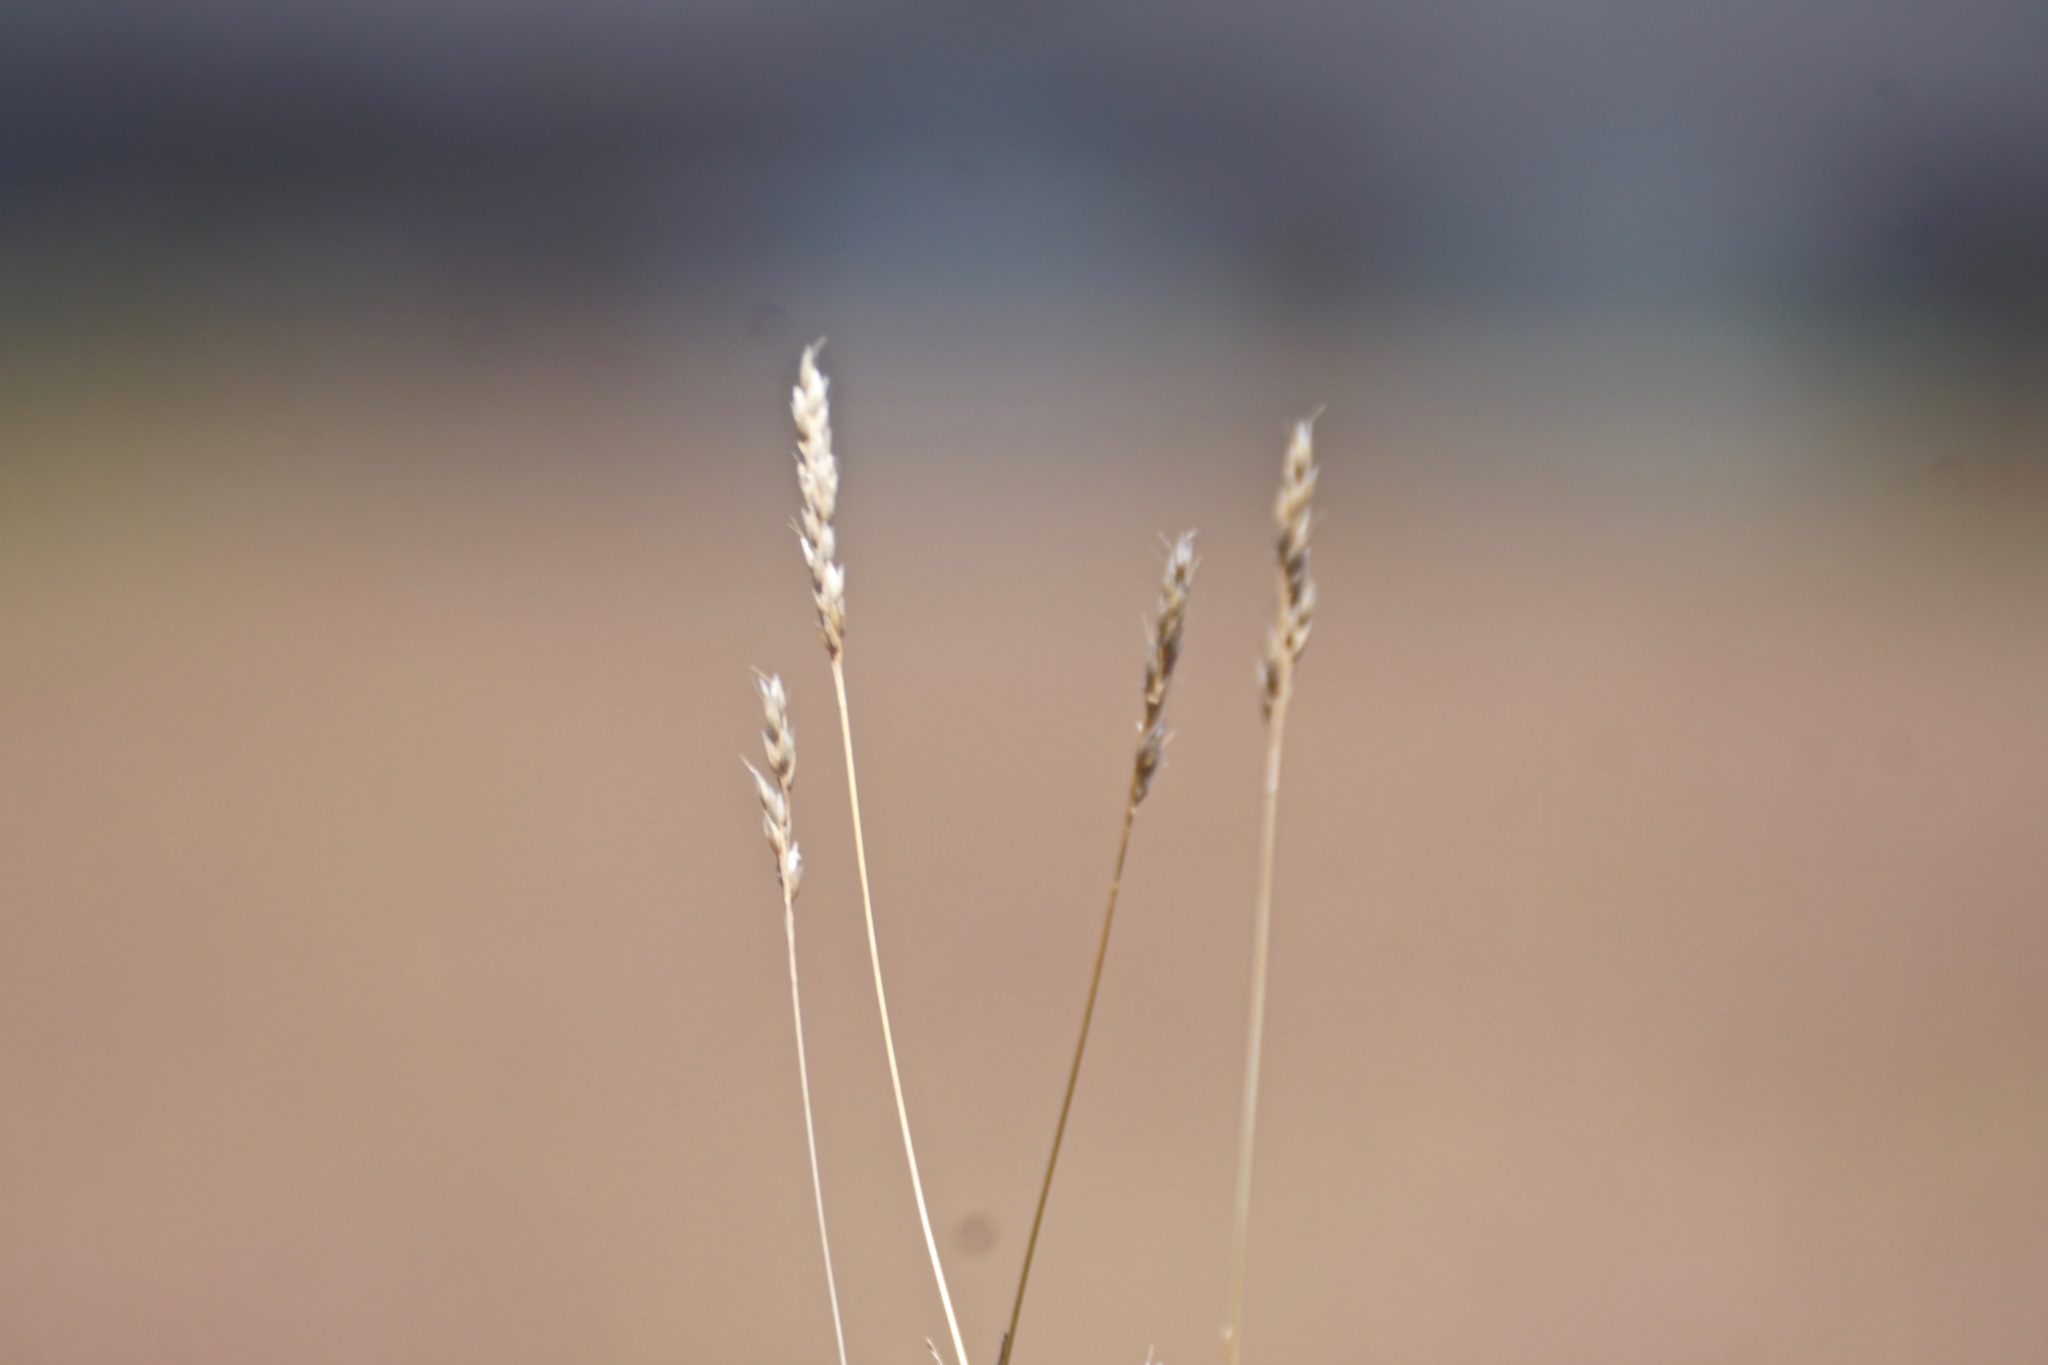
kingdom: Plantae
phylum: Tracheophyta
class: Liliopsida
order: Poales
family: Poaceae
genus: Aira
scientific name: Aira praecox
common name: Early hair-grass
